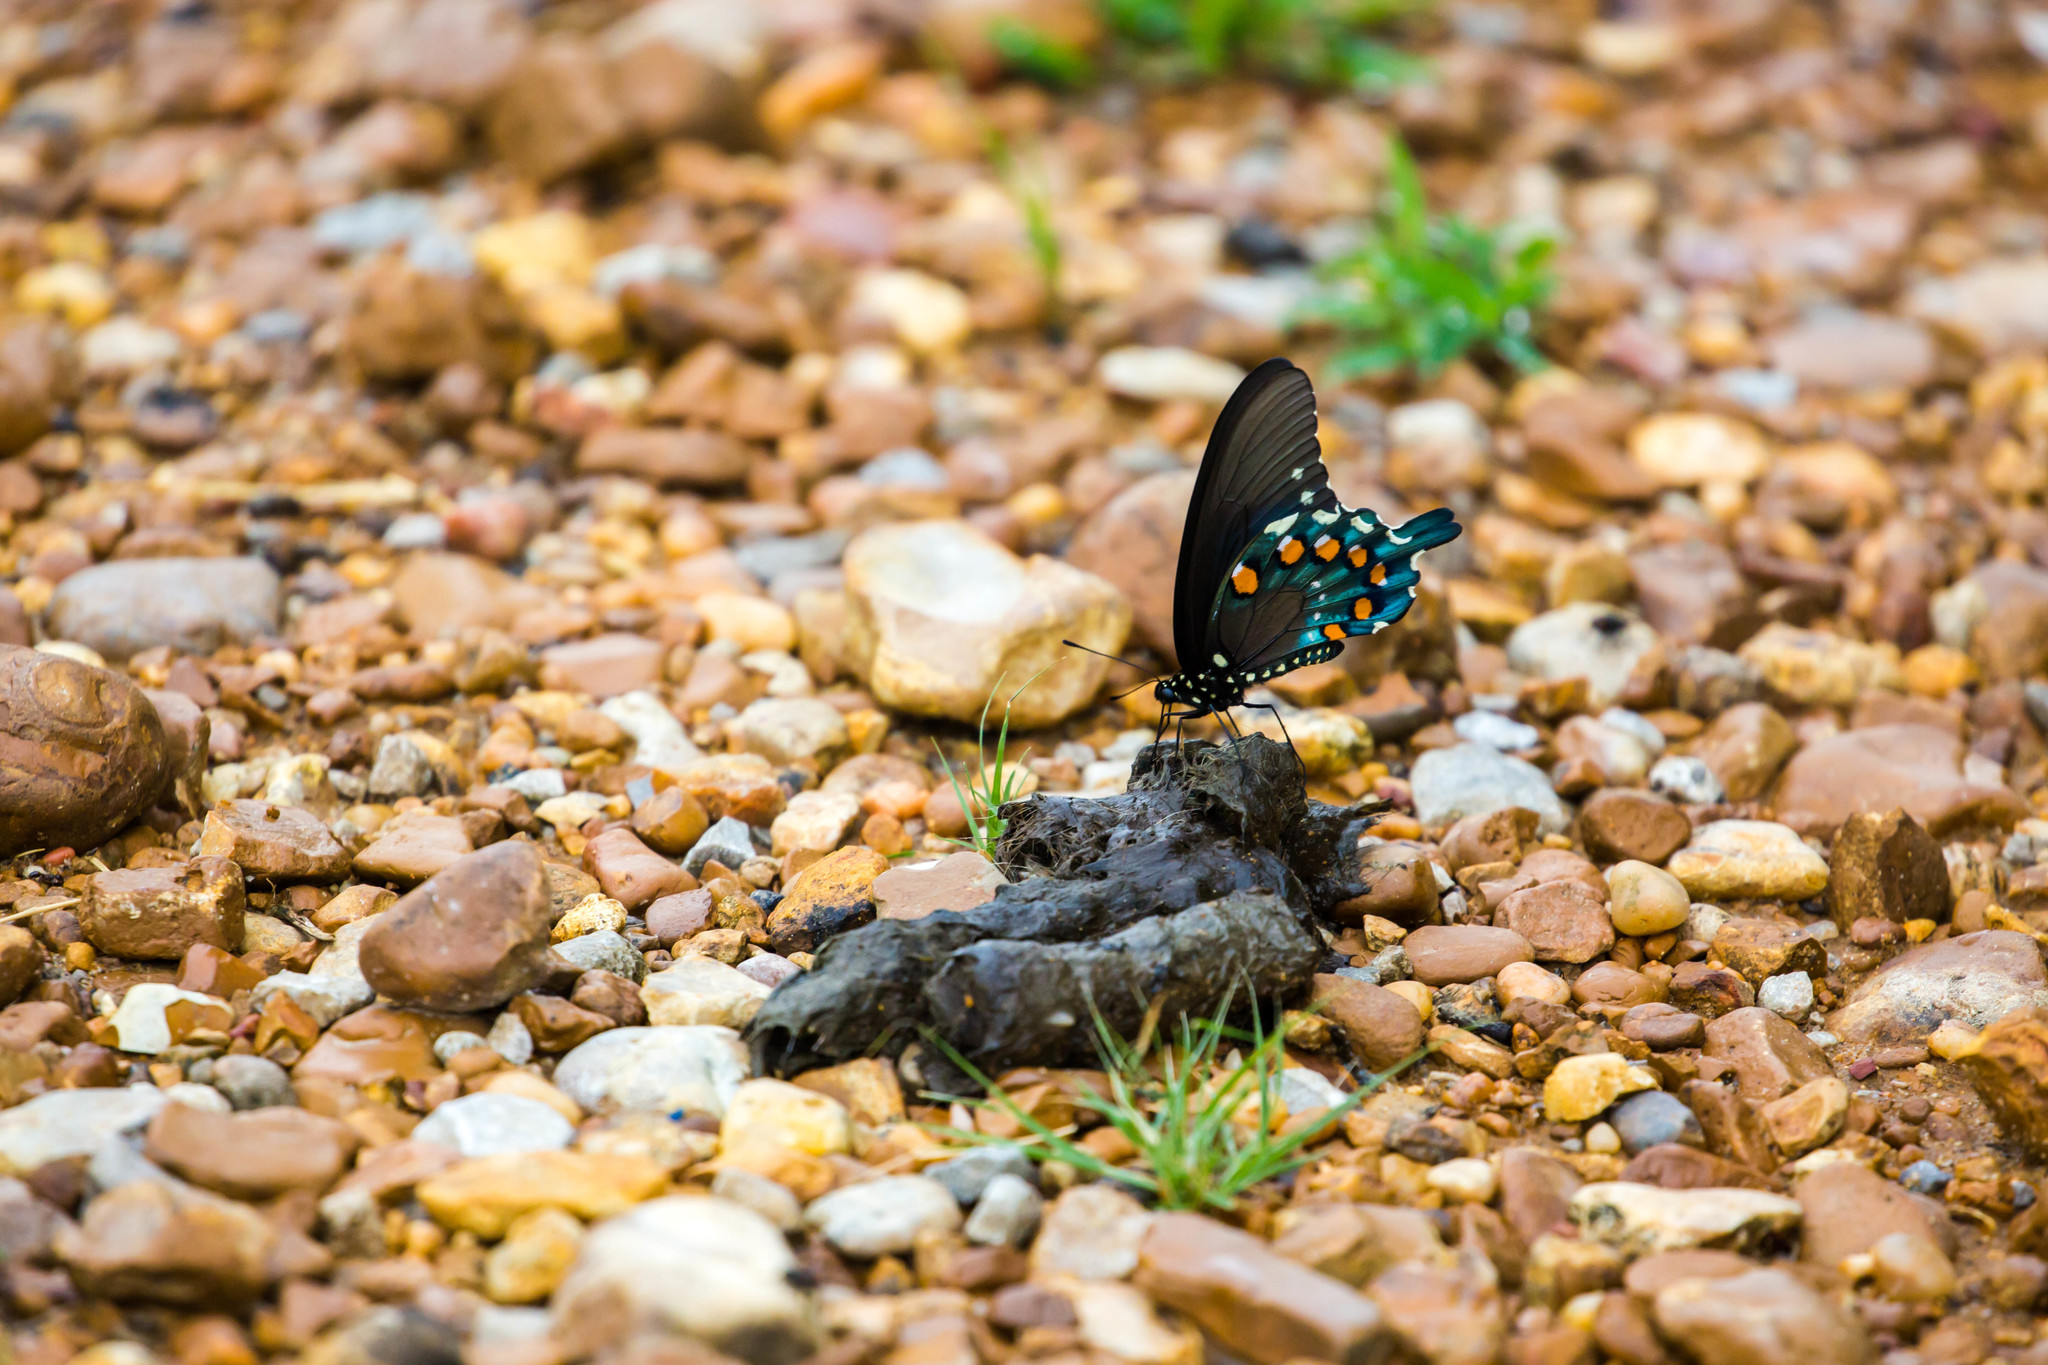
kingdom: Animalia
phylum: Arthropoda
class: Insecta
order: Lepidoptera
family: Papilionidae
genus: Battus
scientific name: Battus philenor
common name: Pipevine swallowtail
